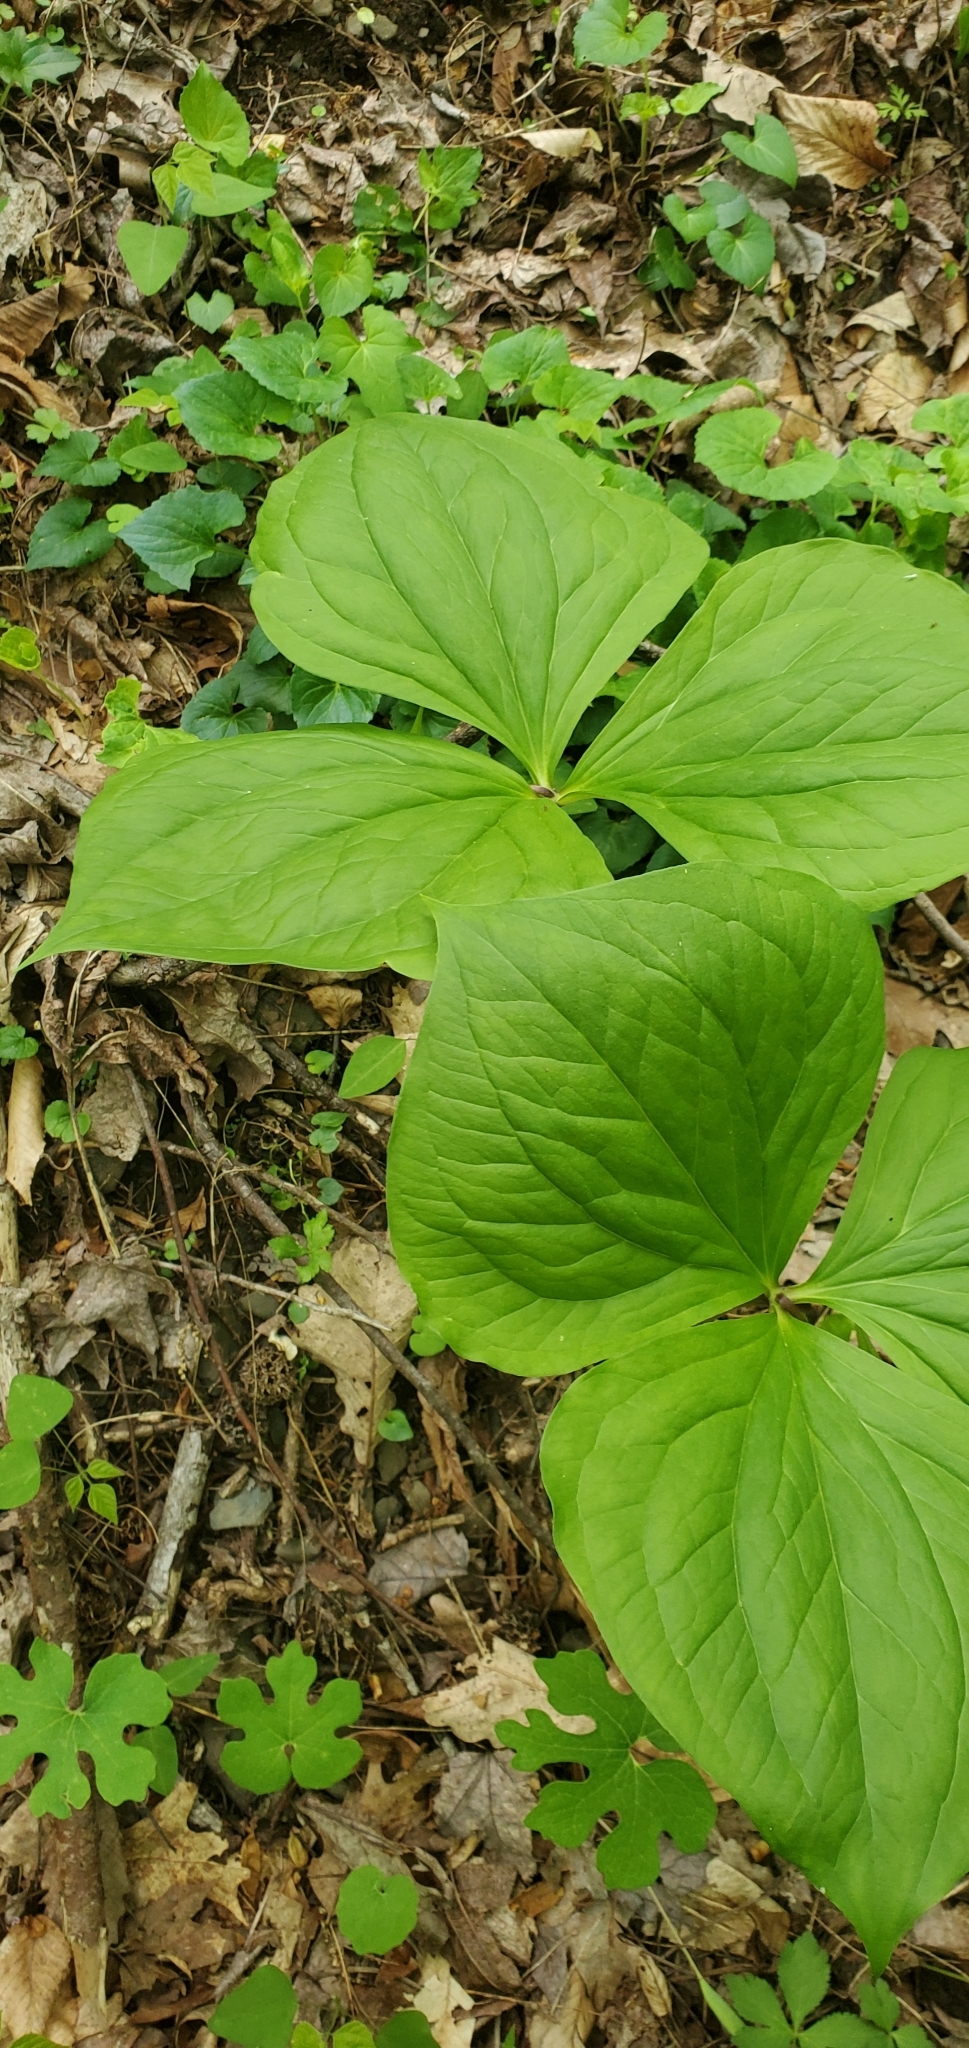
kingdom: Plantae
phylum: Tracheophyta
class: Liliopsida
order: Liliales
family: Melanthiaceae
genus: Trillium
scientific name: Trillium vaseyi
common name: Sweet trillium
